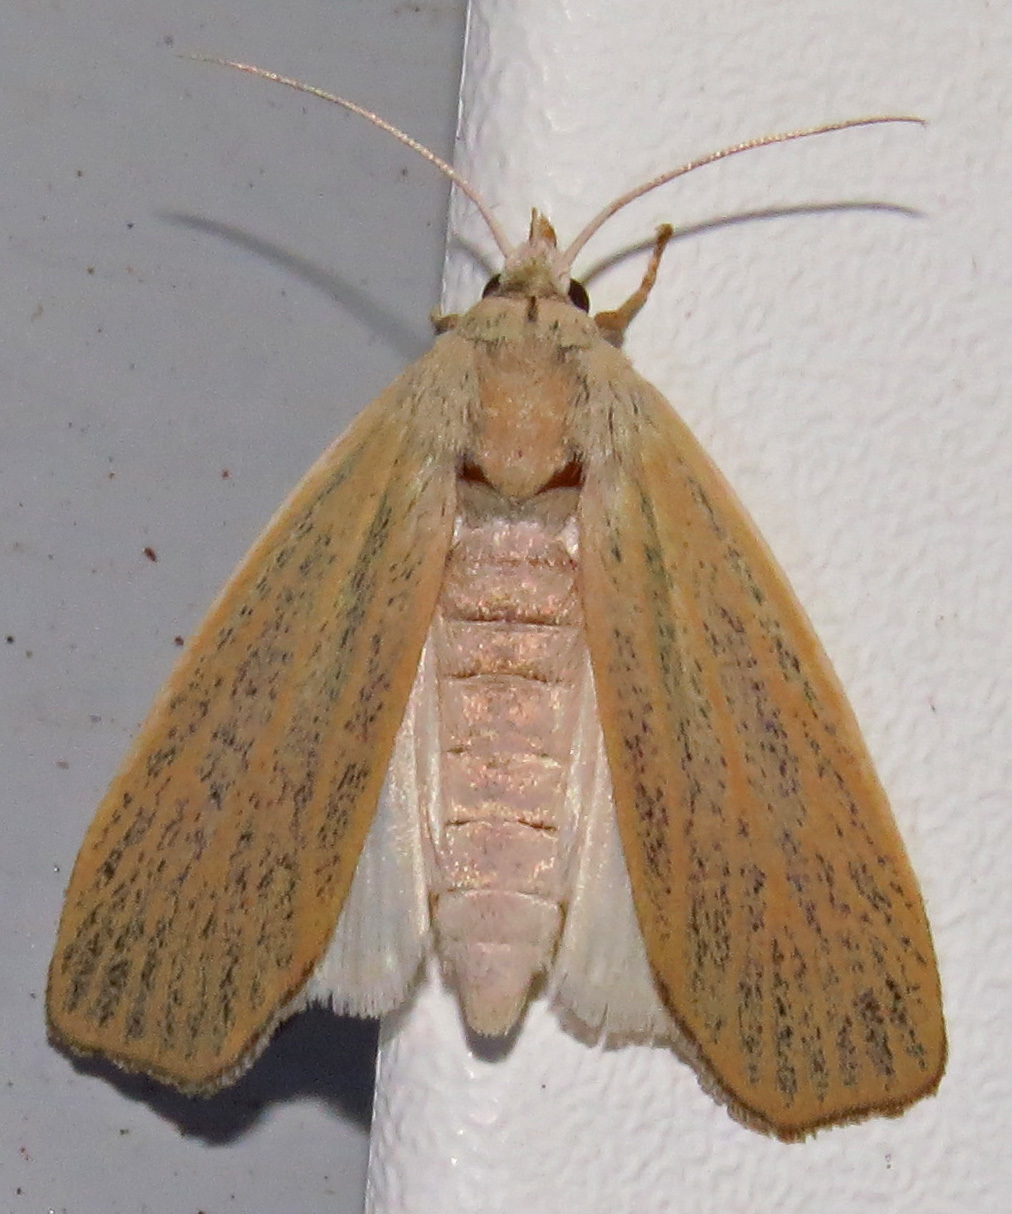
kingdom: Animalia
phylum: Arthropoda
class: Insecta
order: Lepidoptera
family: Erebidae
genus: Palpidia
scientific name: Palpidia pallidior
